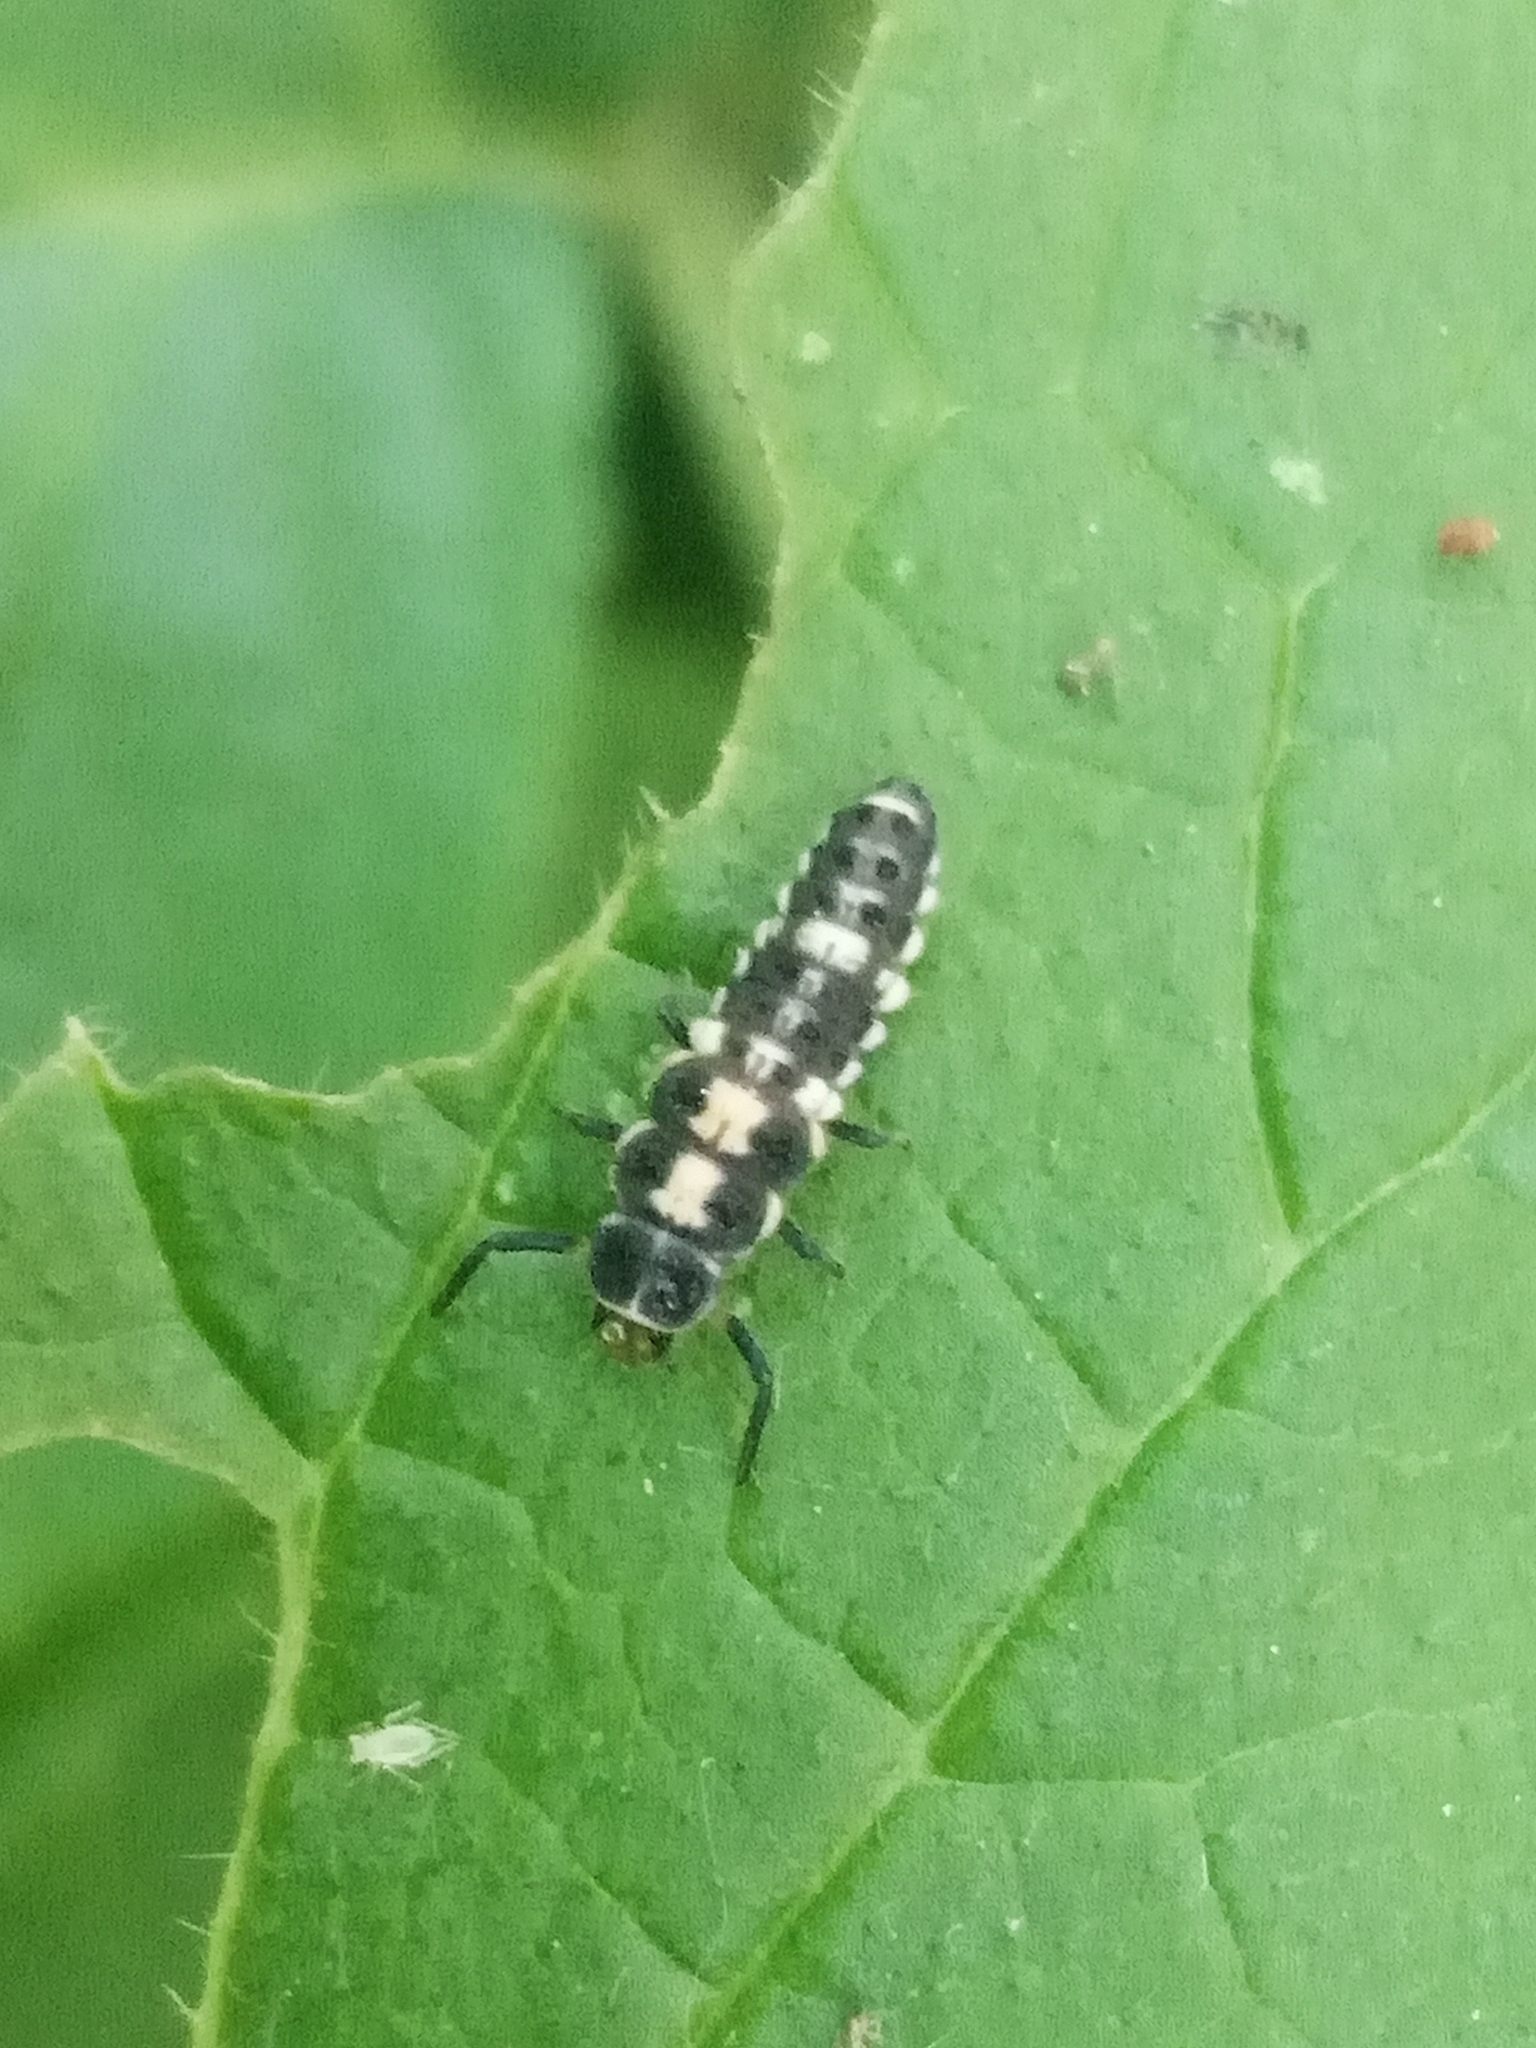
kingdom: Animalia
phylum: Arthropoda
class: Insecta
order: Coleoptera
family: Coccinellidae
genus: Propylaea
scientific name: Propylaea quatuordecimpunctata
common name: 14-spotted ladybird beetle
